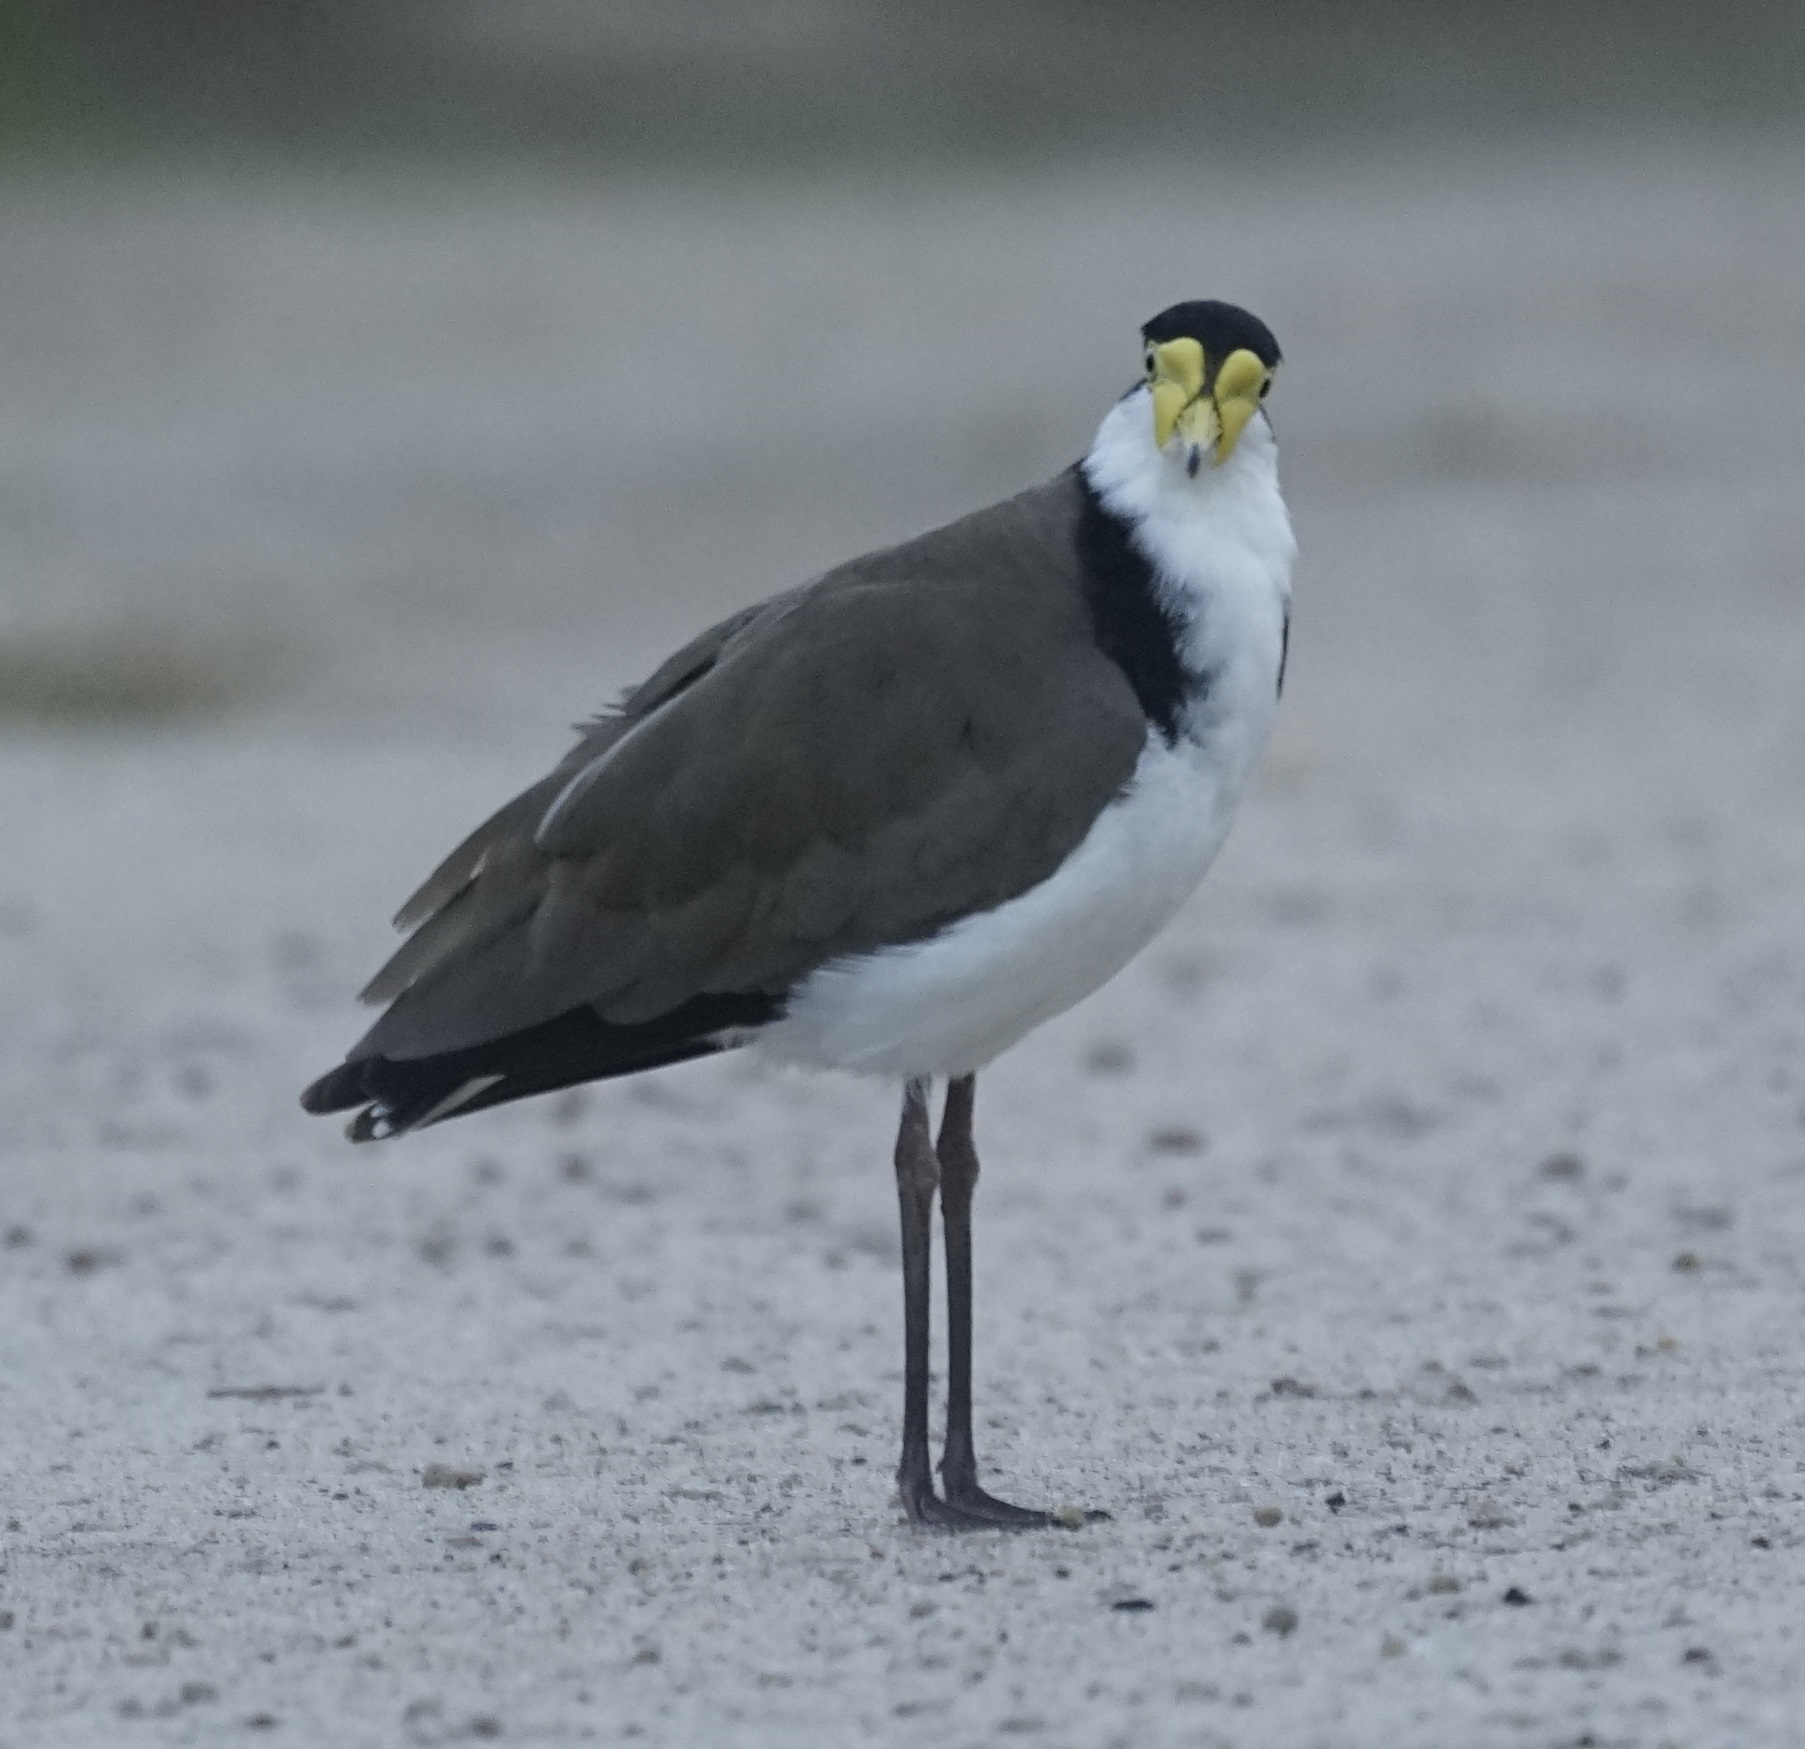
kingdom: Animalia
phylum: Chordata
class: Aves
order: Charadriiformes
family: Charadriidae
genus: Vanellus
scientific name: Vanellus miles
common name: Masked lapwing
